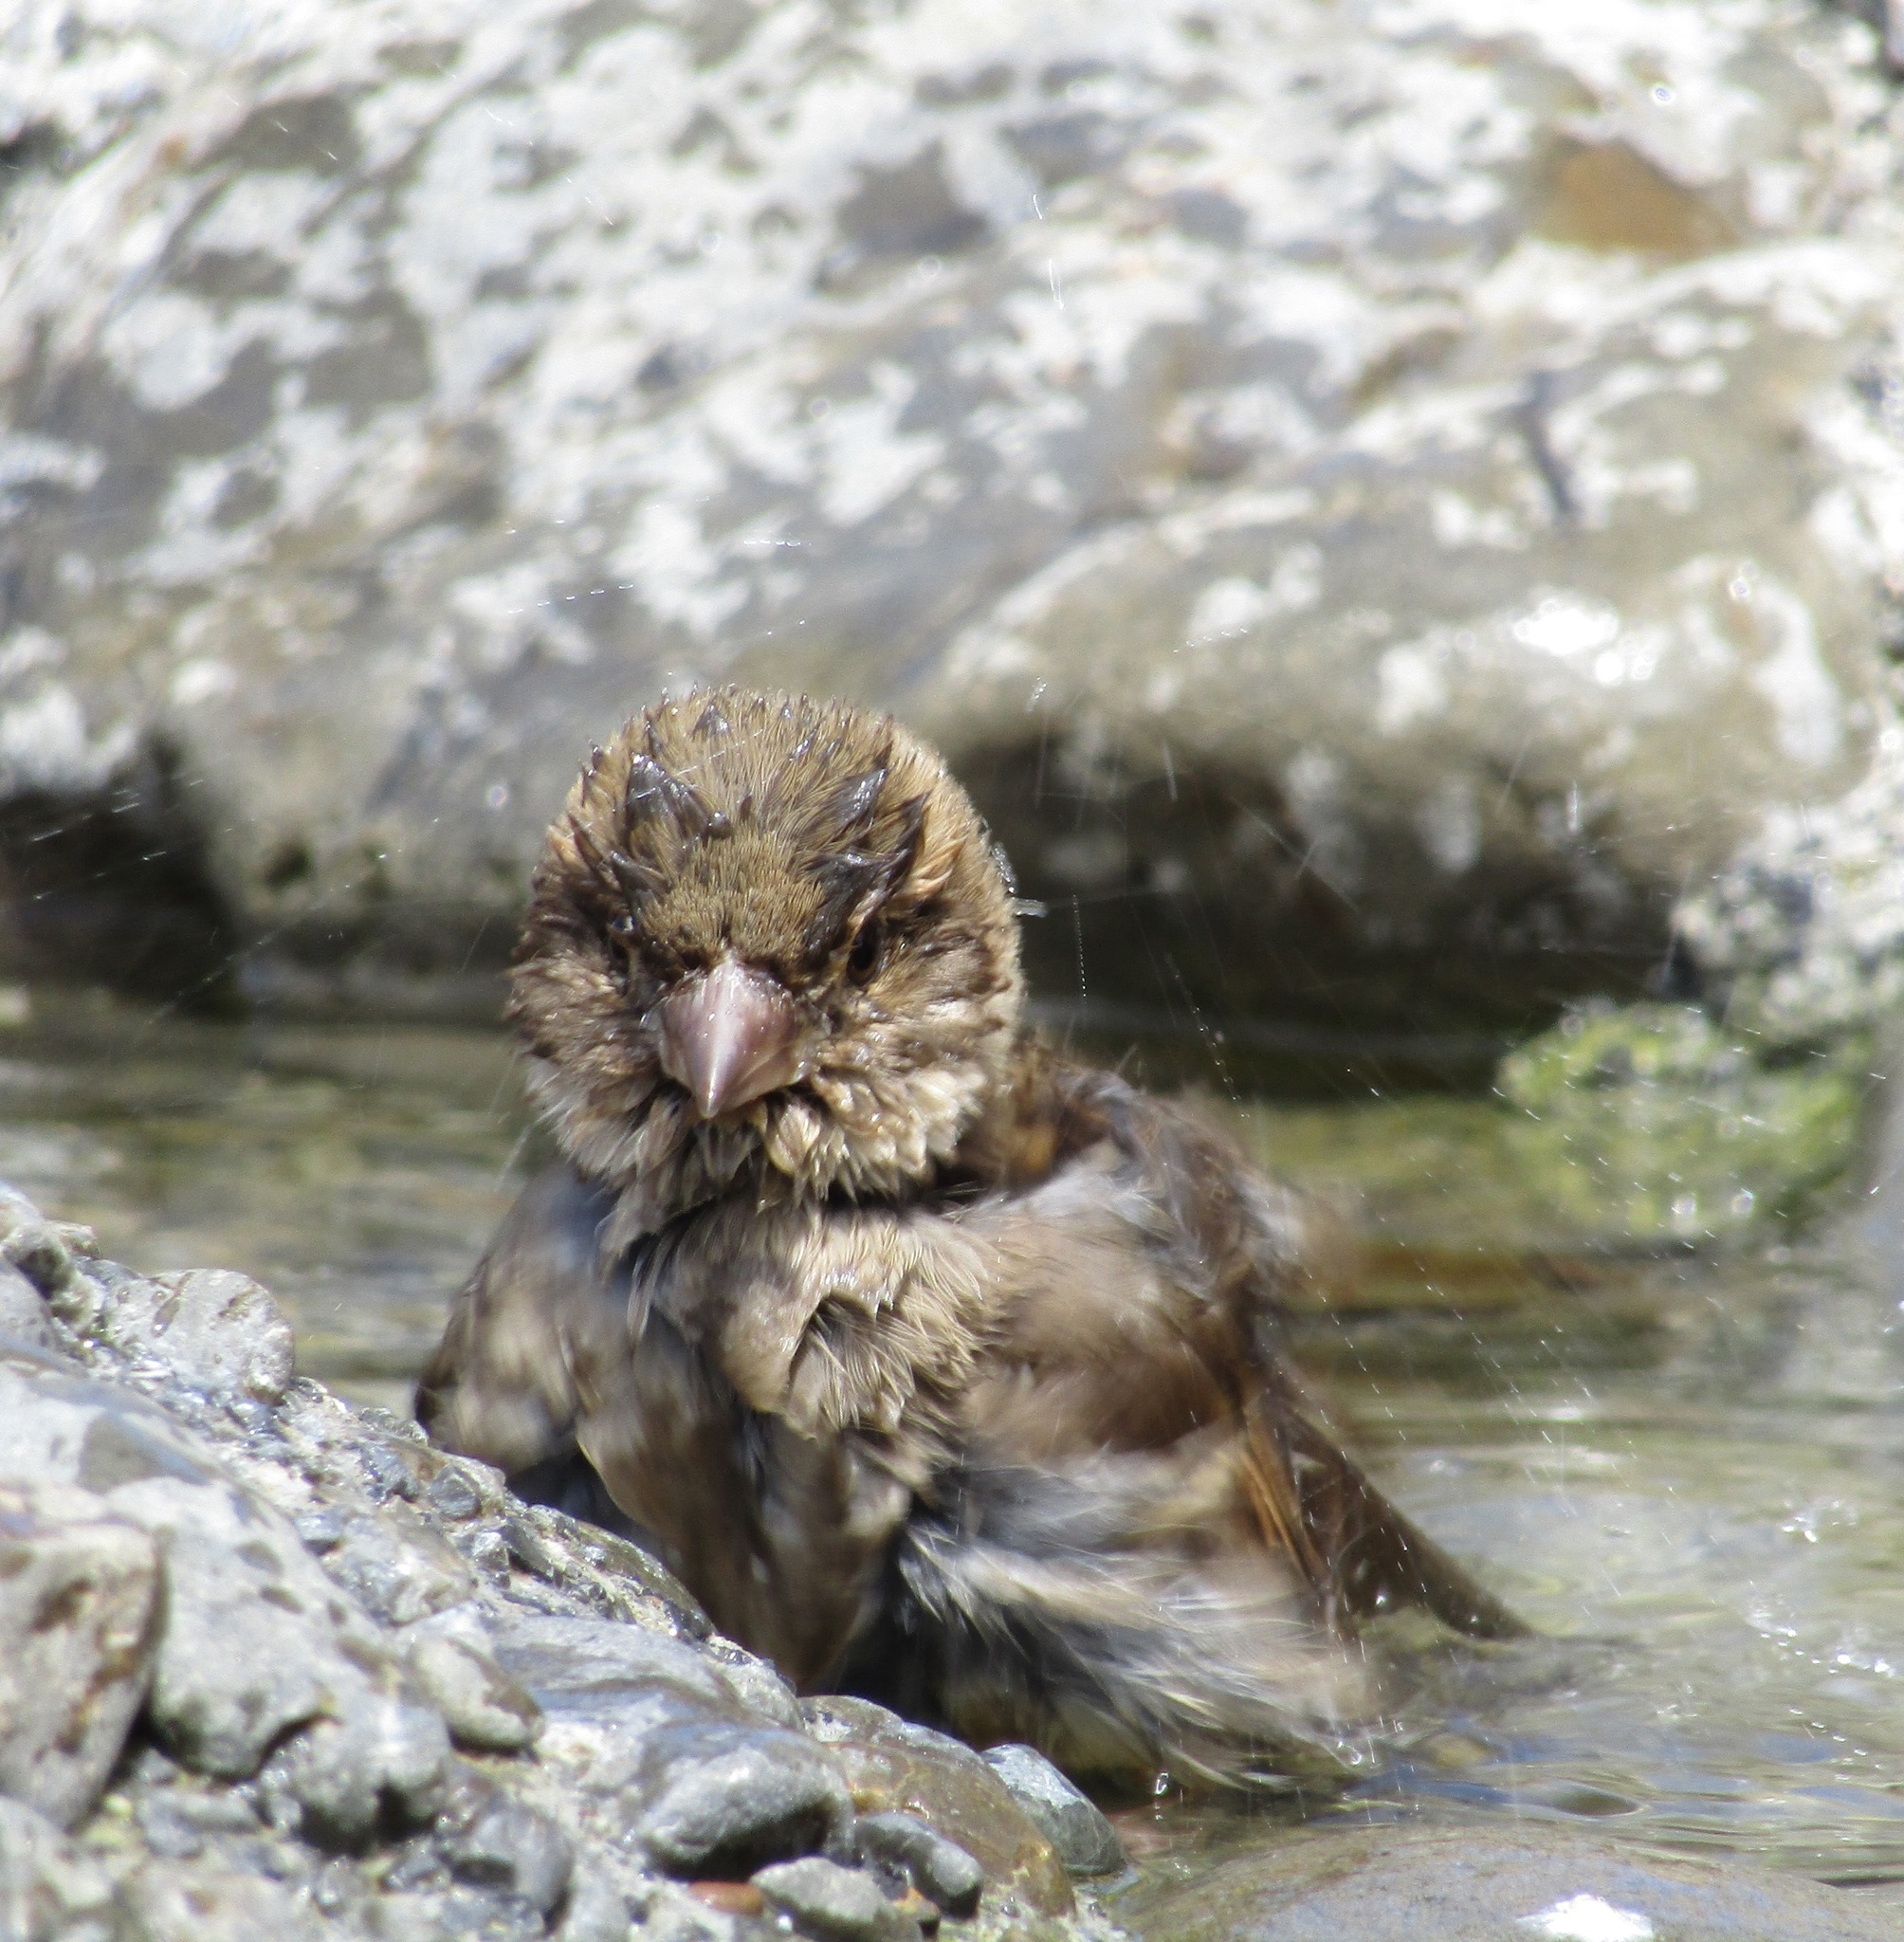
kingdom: Animalia
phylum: Chordata
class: Aves
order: Passeriformes
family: Passeridae
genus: Passer
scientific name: Passer domesticus
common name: House sparrow
